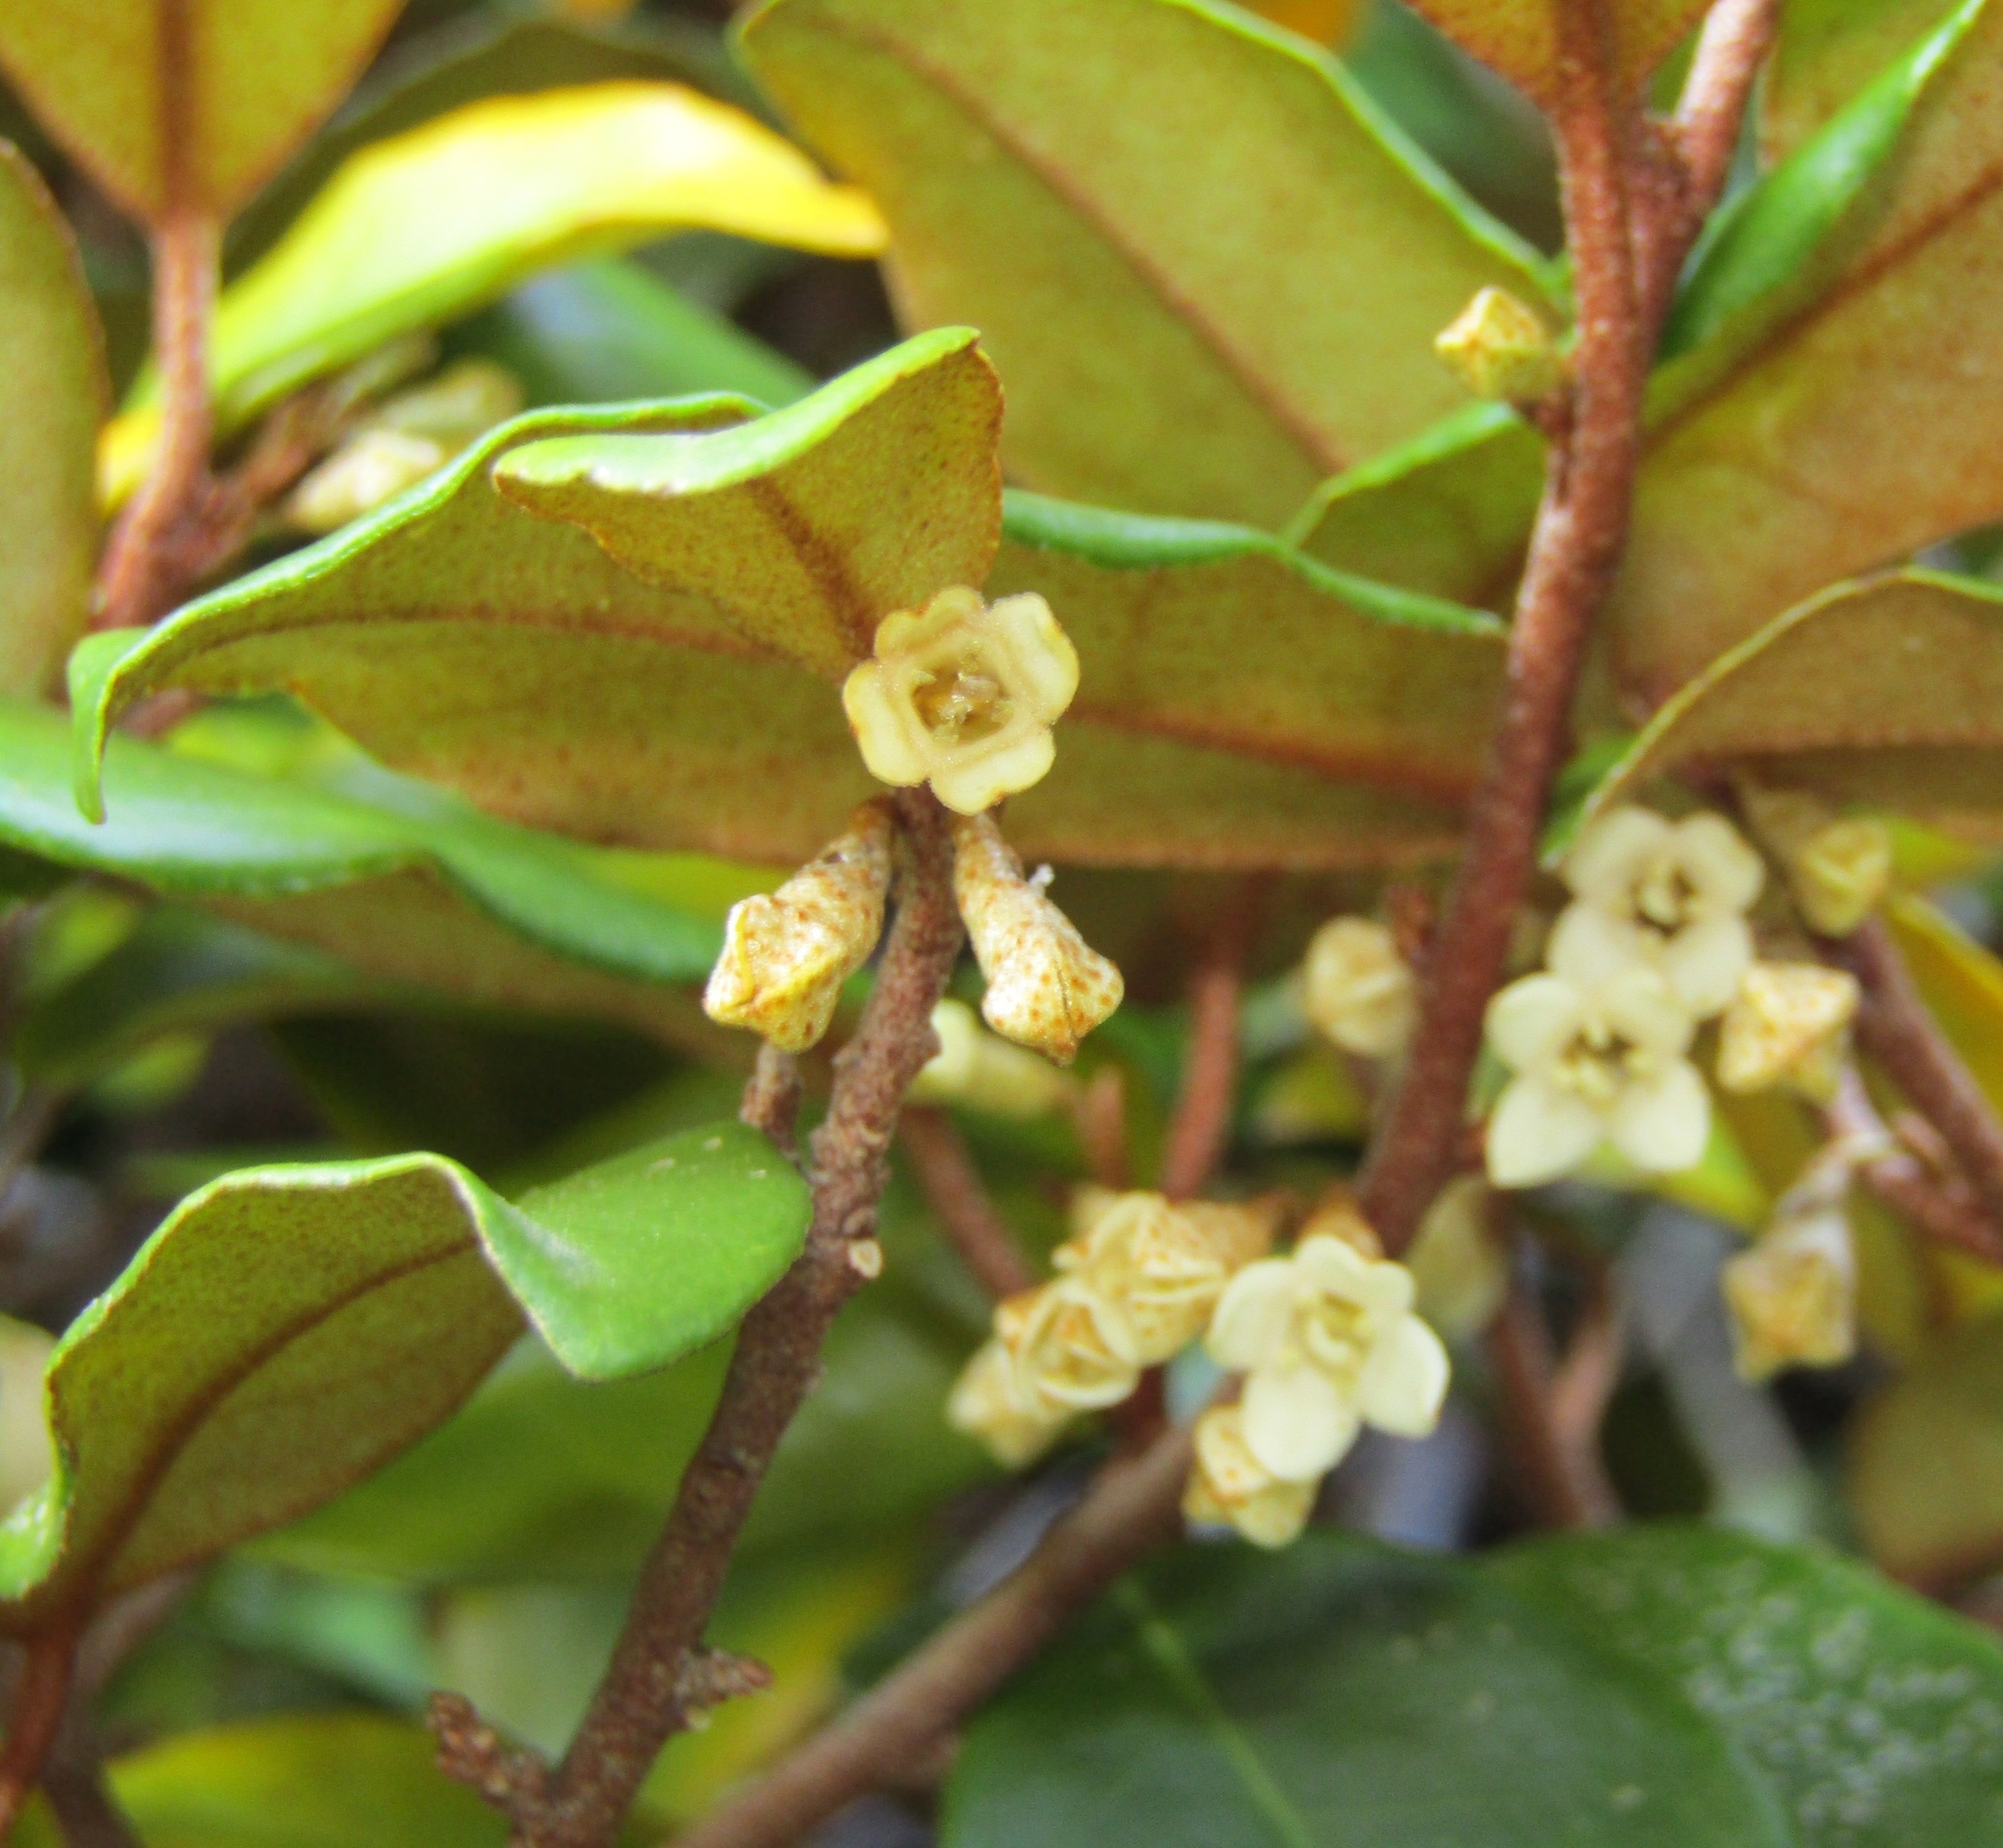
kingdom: Plantae
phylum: Tracheophyta
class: Magnoliopsida
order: Rosales
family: Elaeagnaceae
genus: Elaeagnus
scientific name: Elaeagnus reflexa
